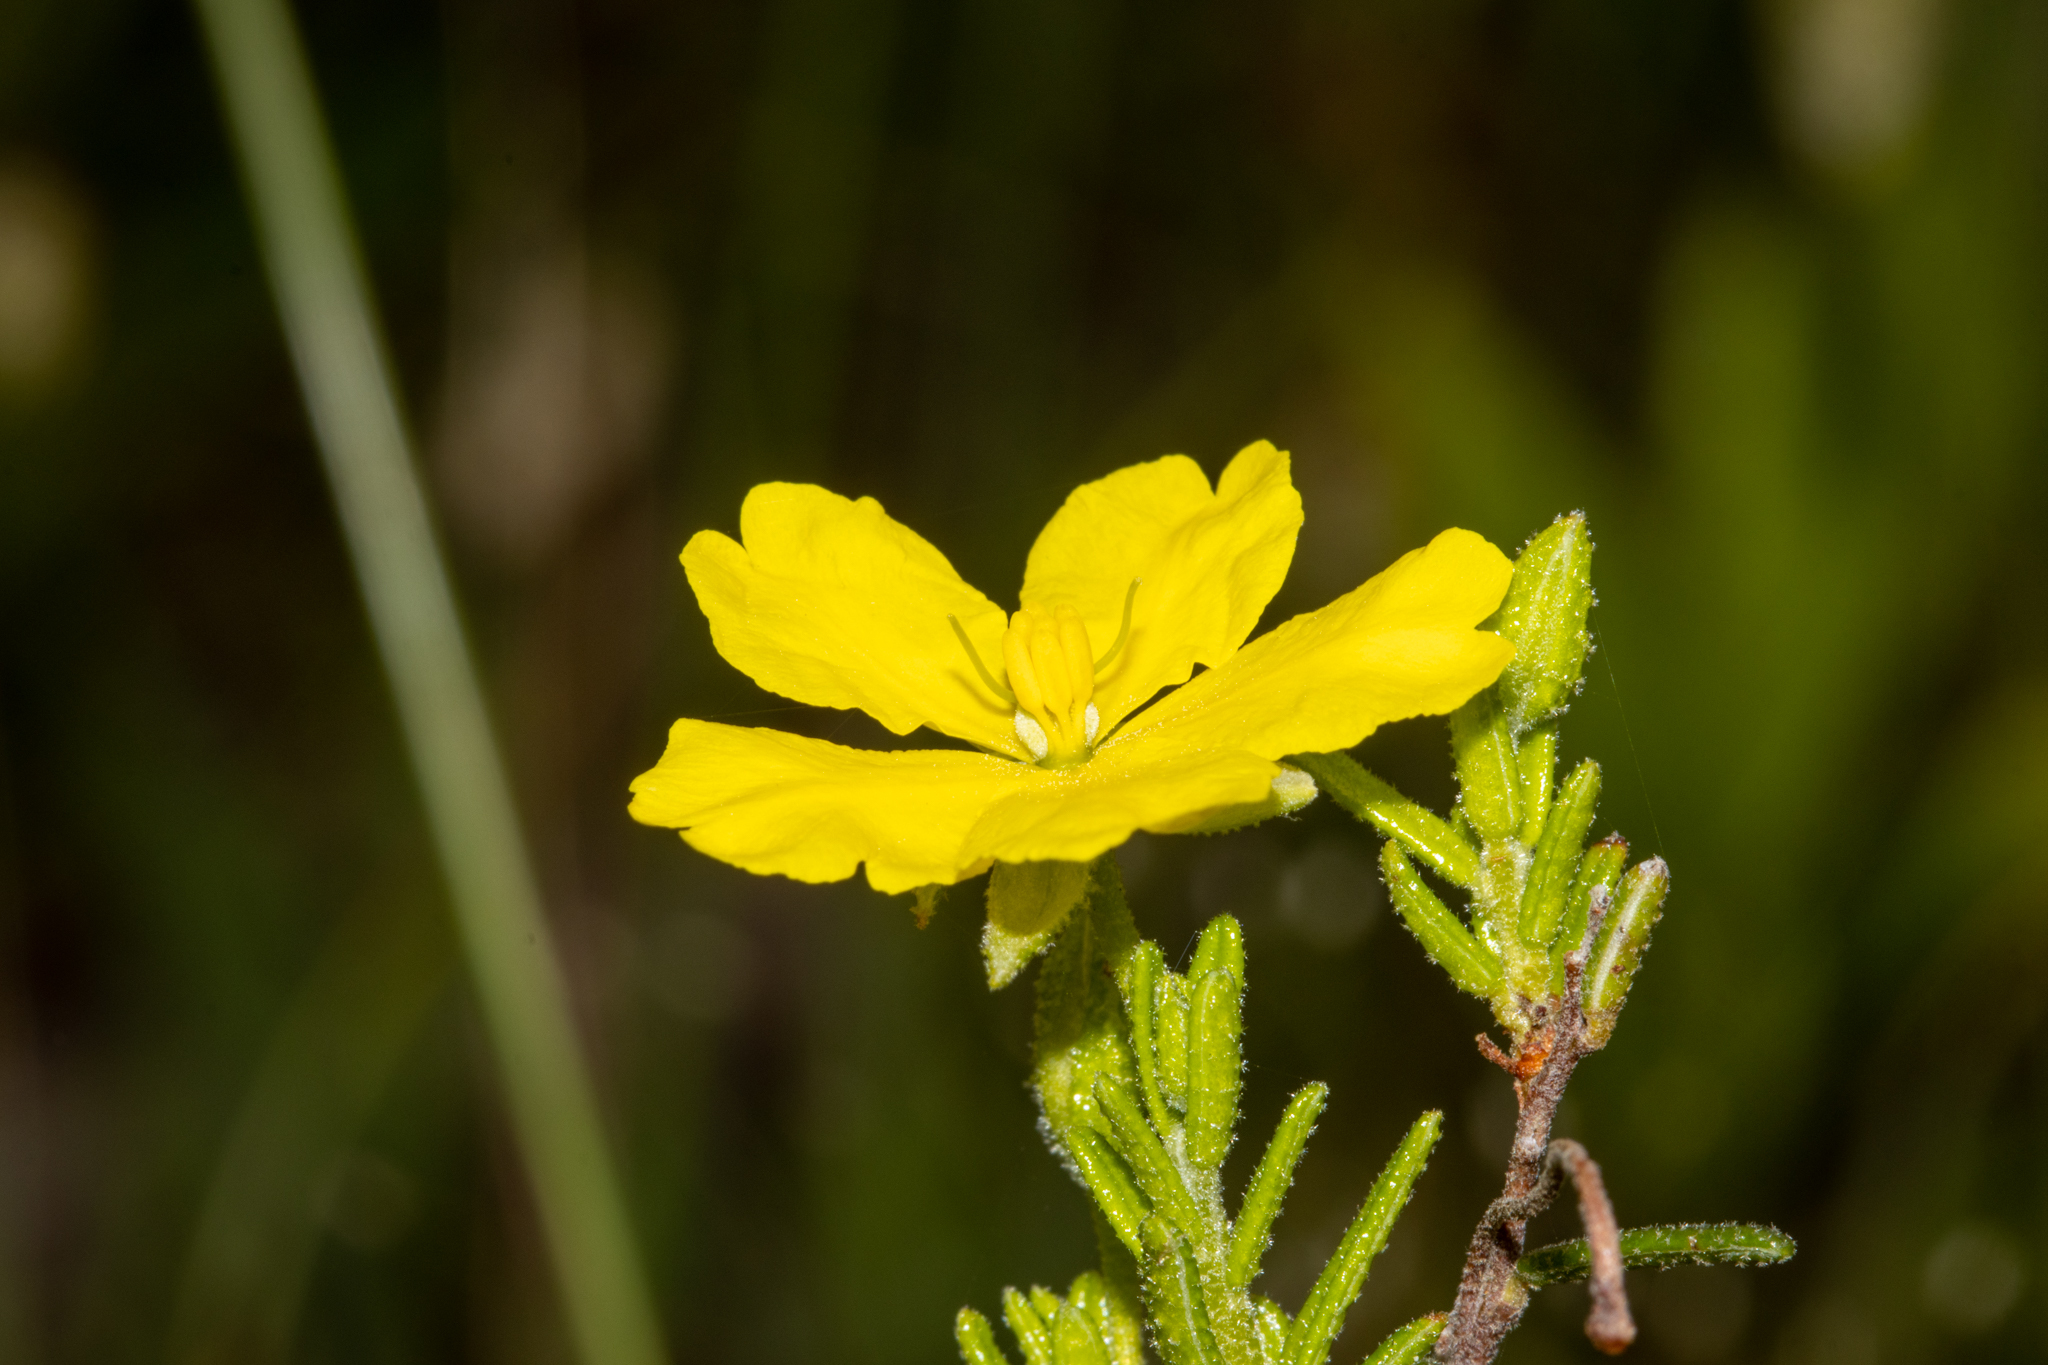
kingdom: Plantae
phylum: Tracheophyta
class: Magnoliopsida
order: Dilleniales
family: Dilleniaceae
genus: Hibbertia
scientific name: Hibbertia glebosa
